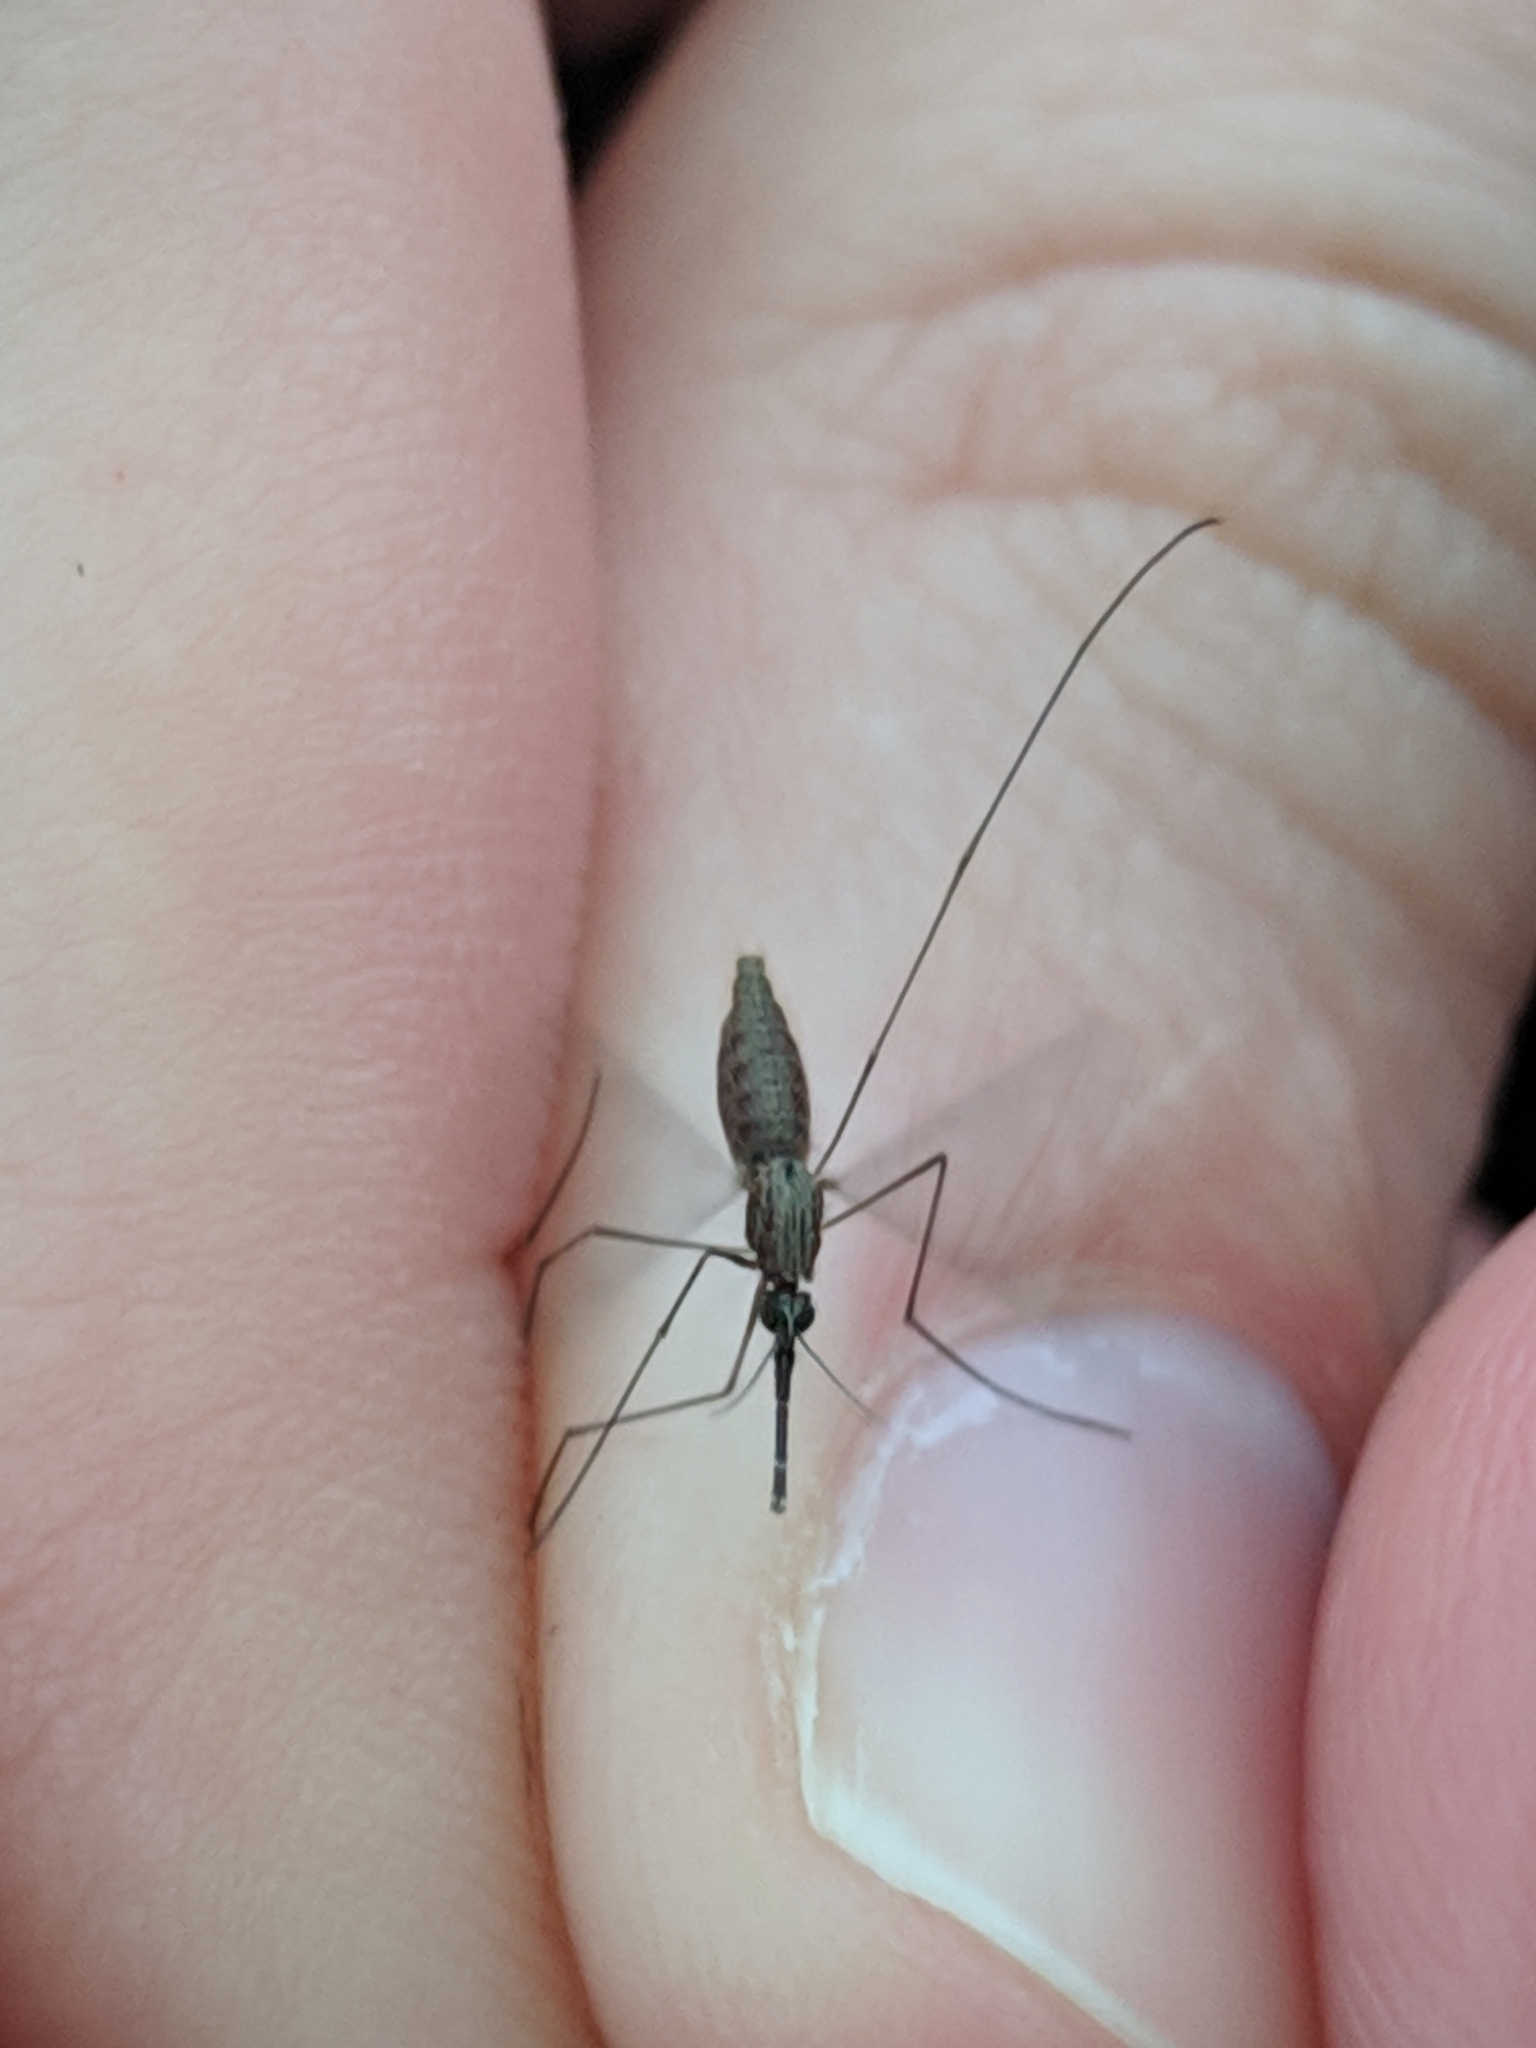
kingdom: Animalia
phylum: Arthropoda
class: Insecta
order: Diptera
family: Culicidae
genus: Anopheles
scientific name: Anopheles bradleyi
